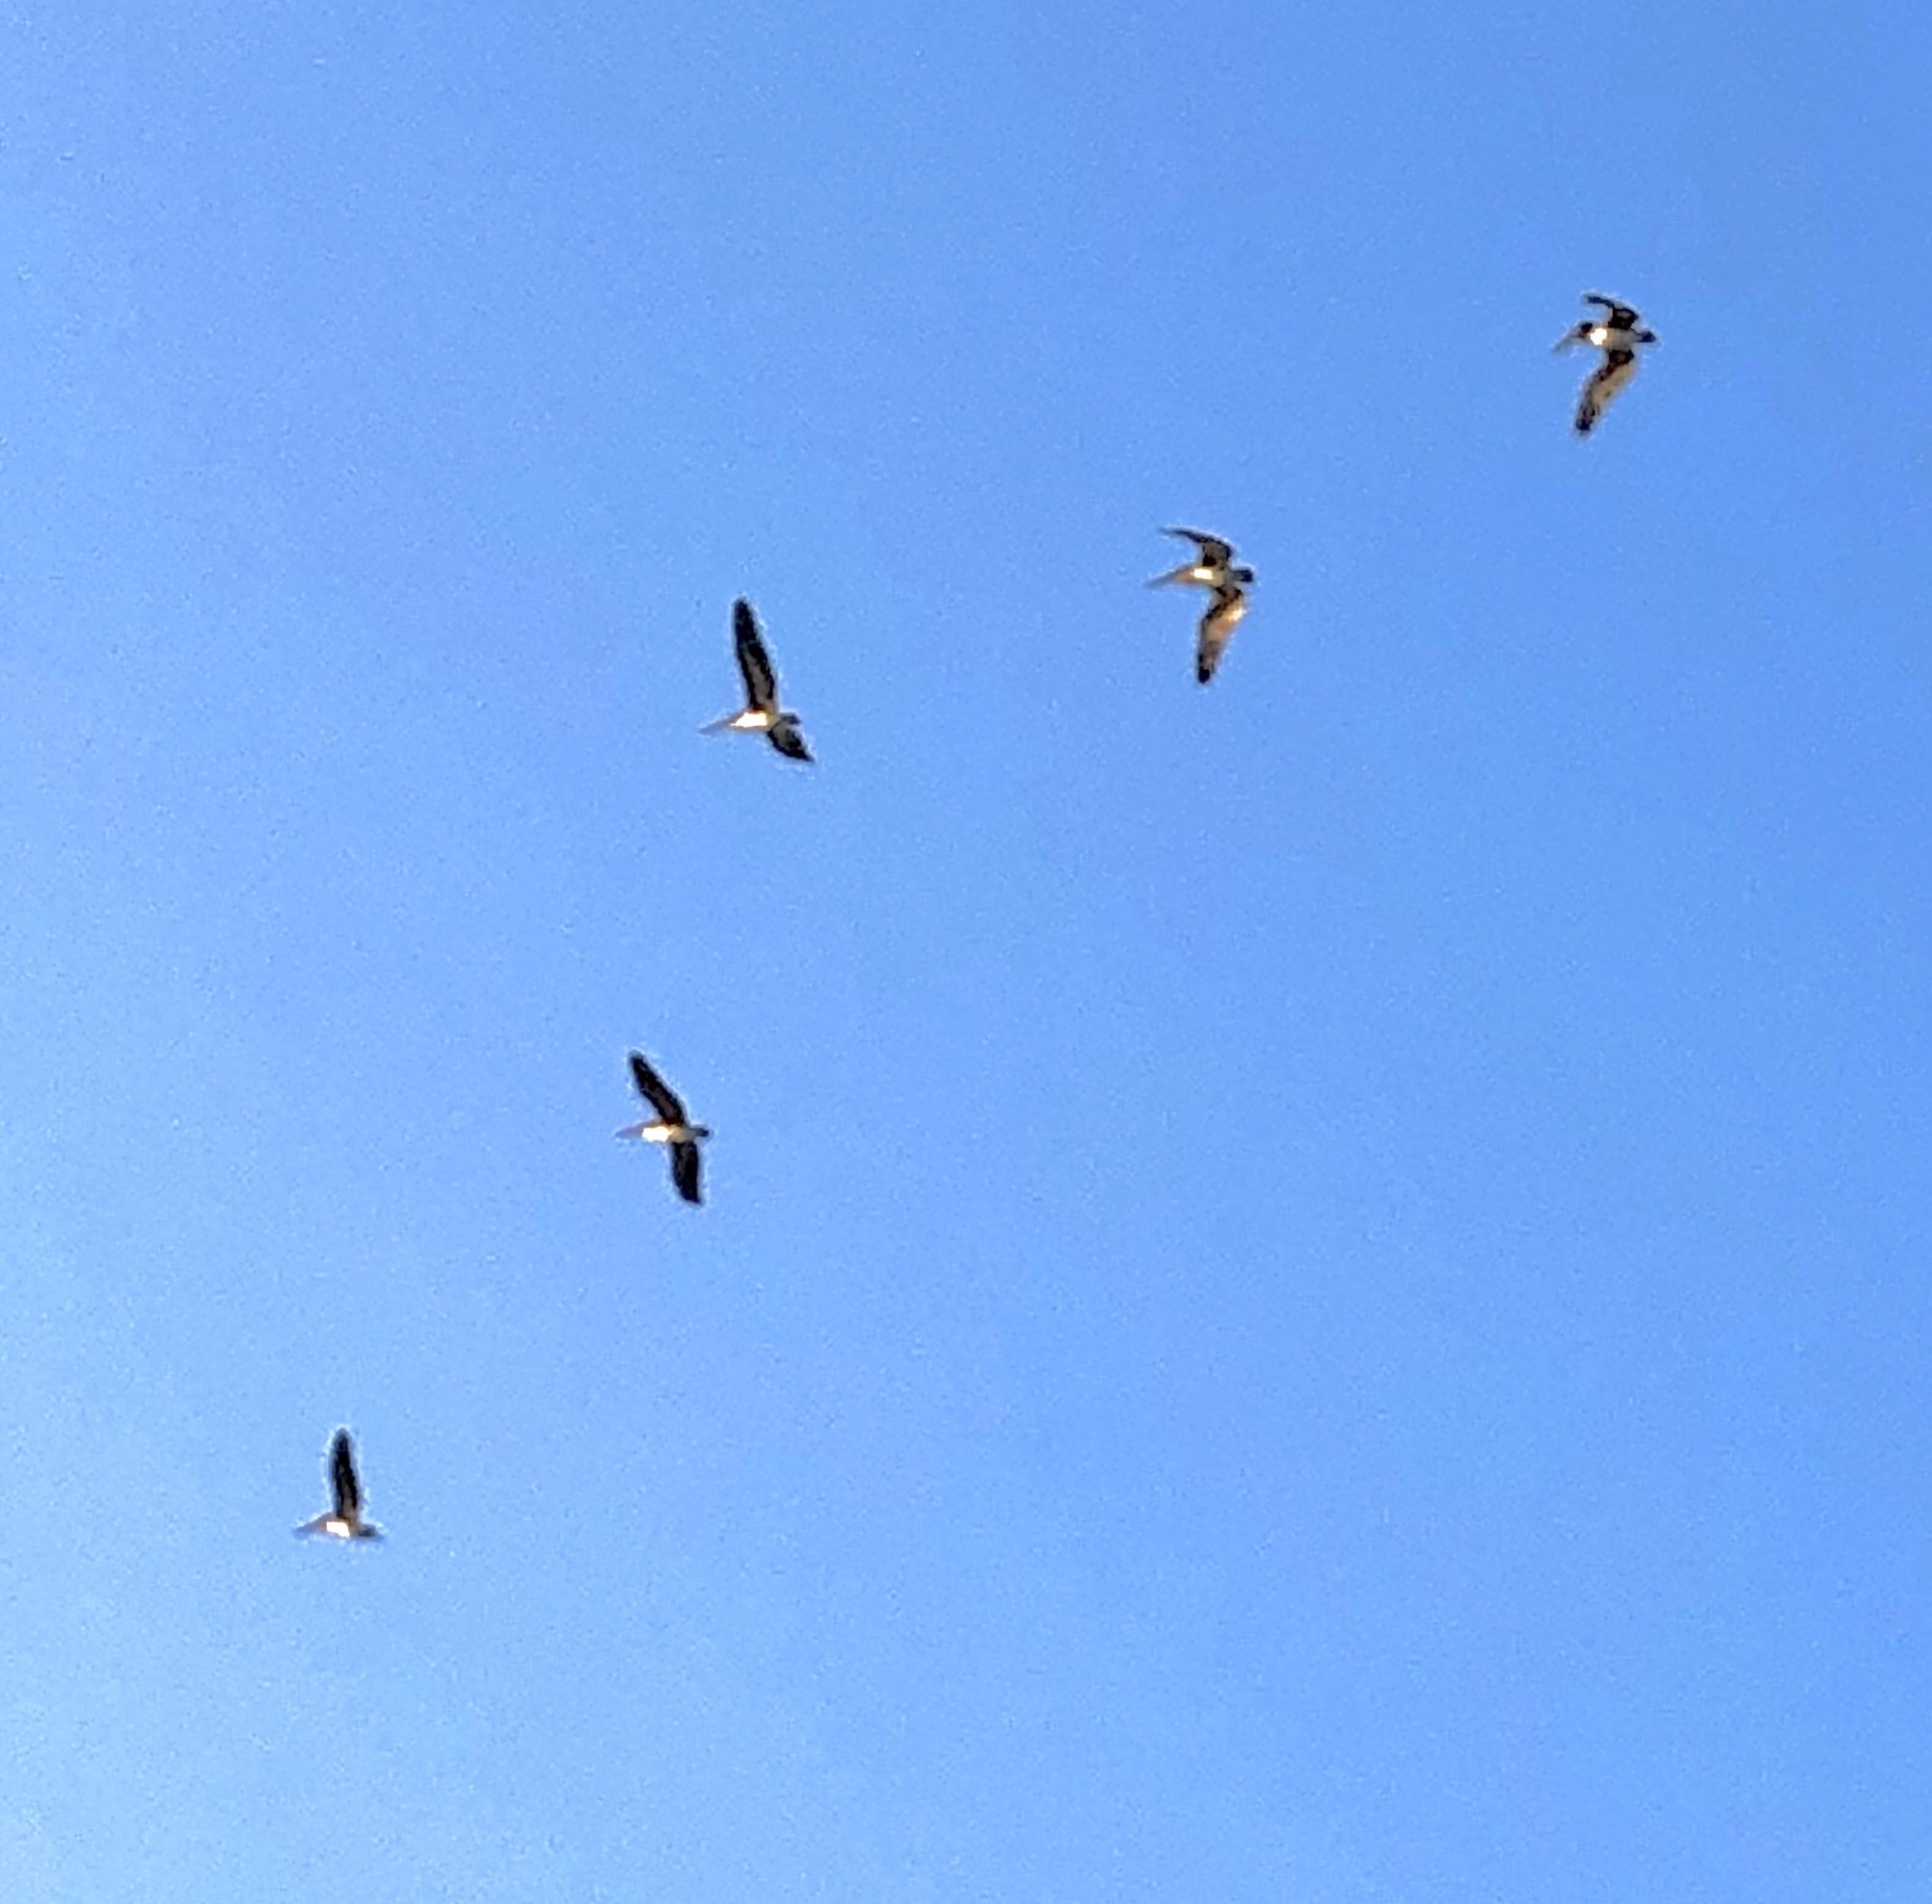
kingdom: Animalia
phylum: Chordata
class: Aves
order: Pelecaniformes
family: Pelecanidae
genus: Pelecanus
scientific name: Pelecanus occidentalis
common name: Brown pelican
